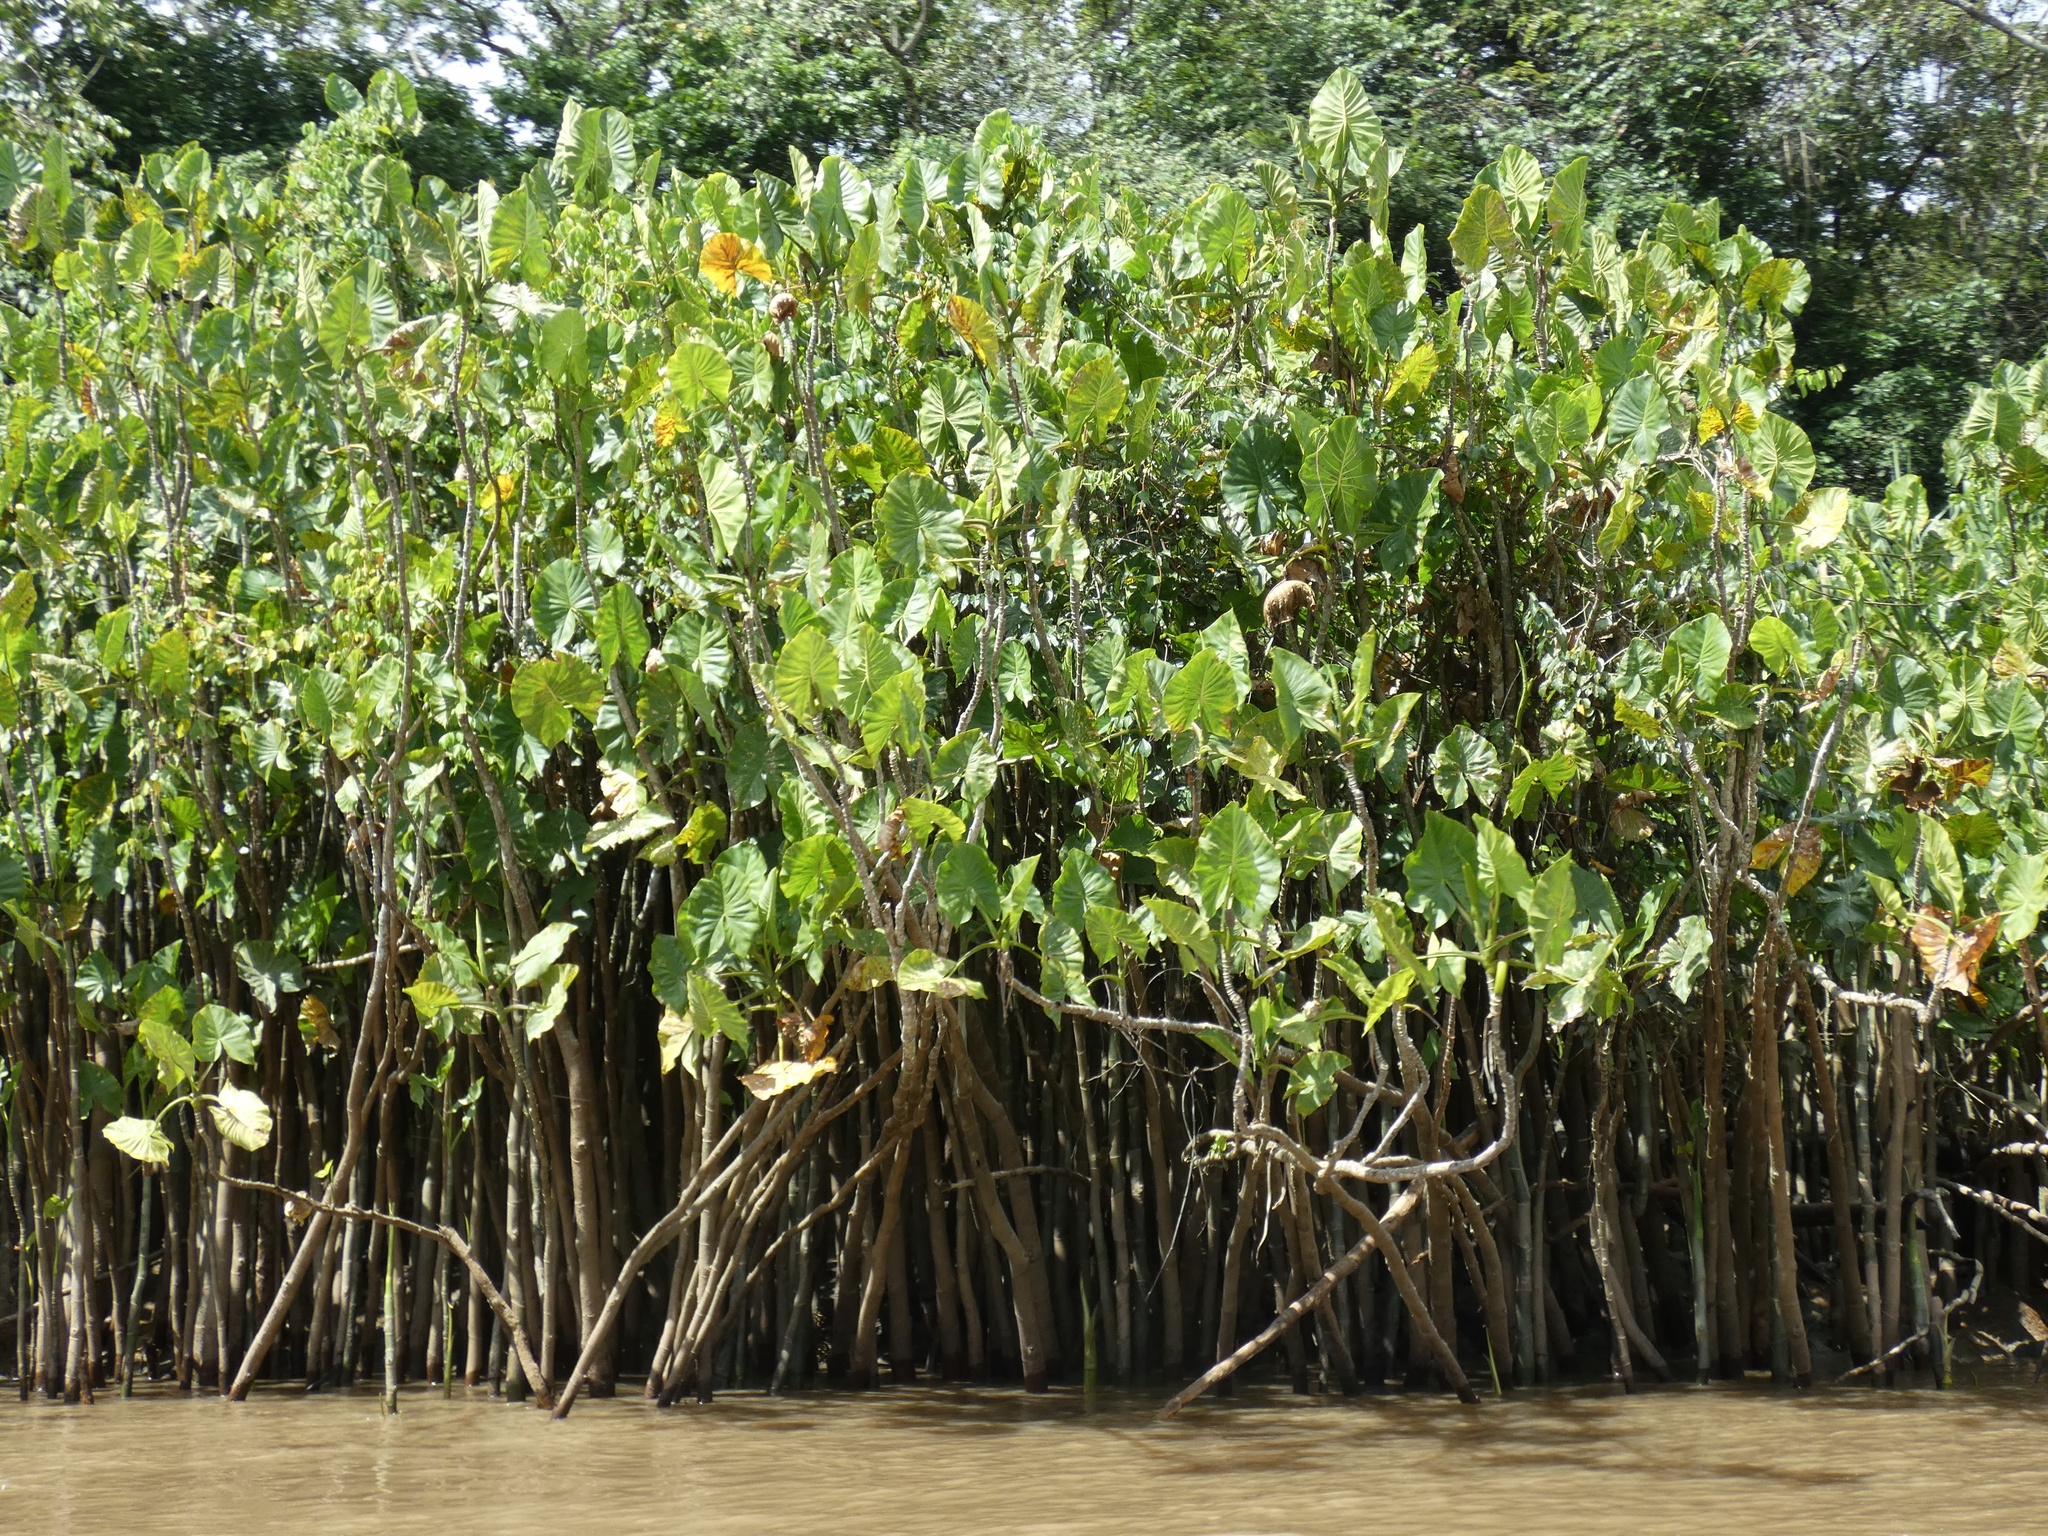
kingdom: Plantae
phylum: Tracheophyta
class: Liliopsida
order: Alismatales
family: Araceae
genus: Montrichardia
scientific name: Montrichardia linifera
